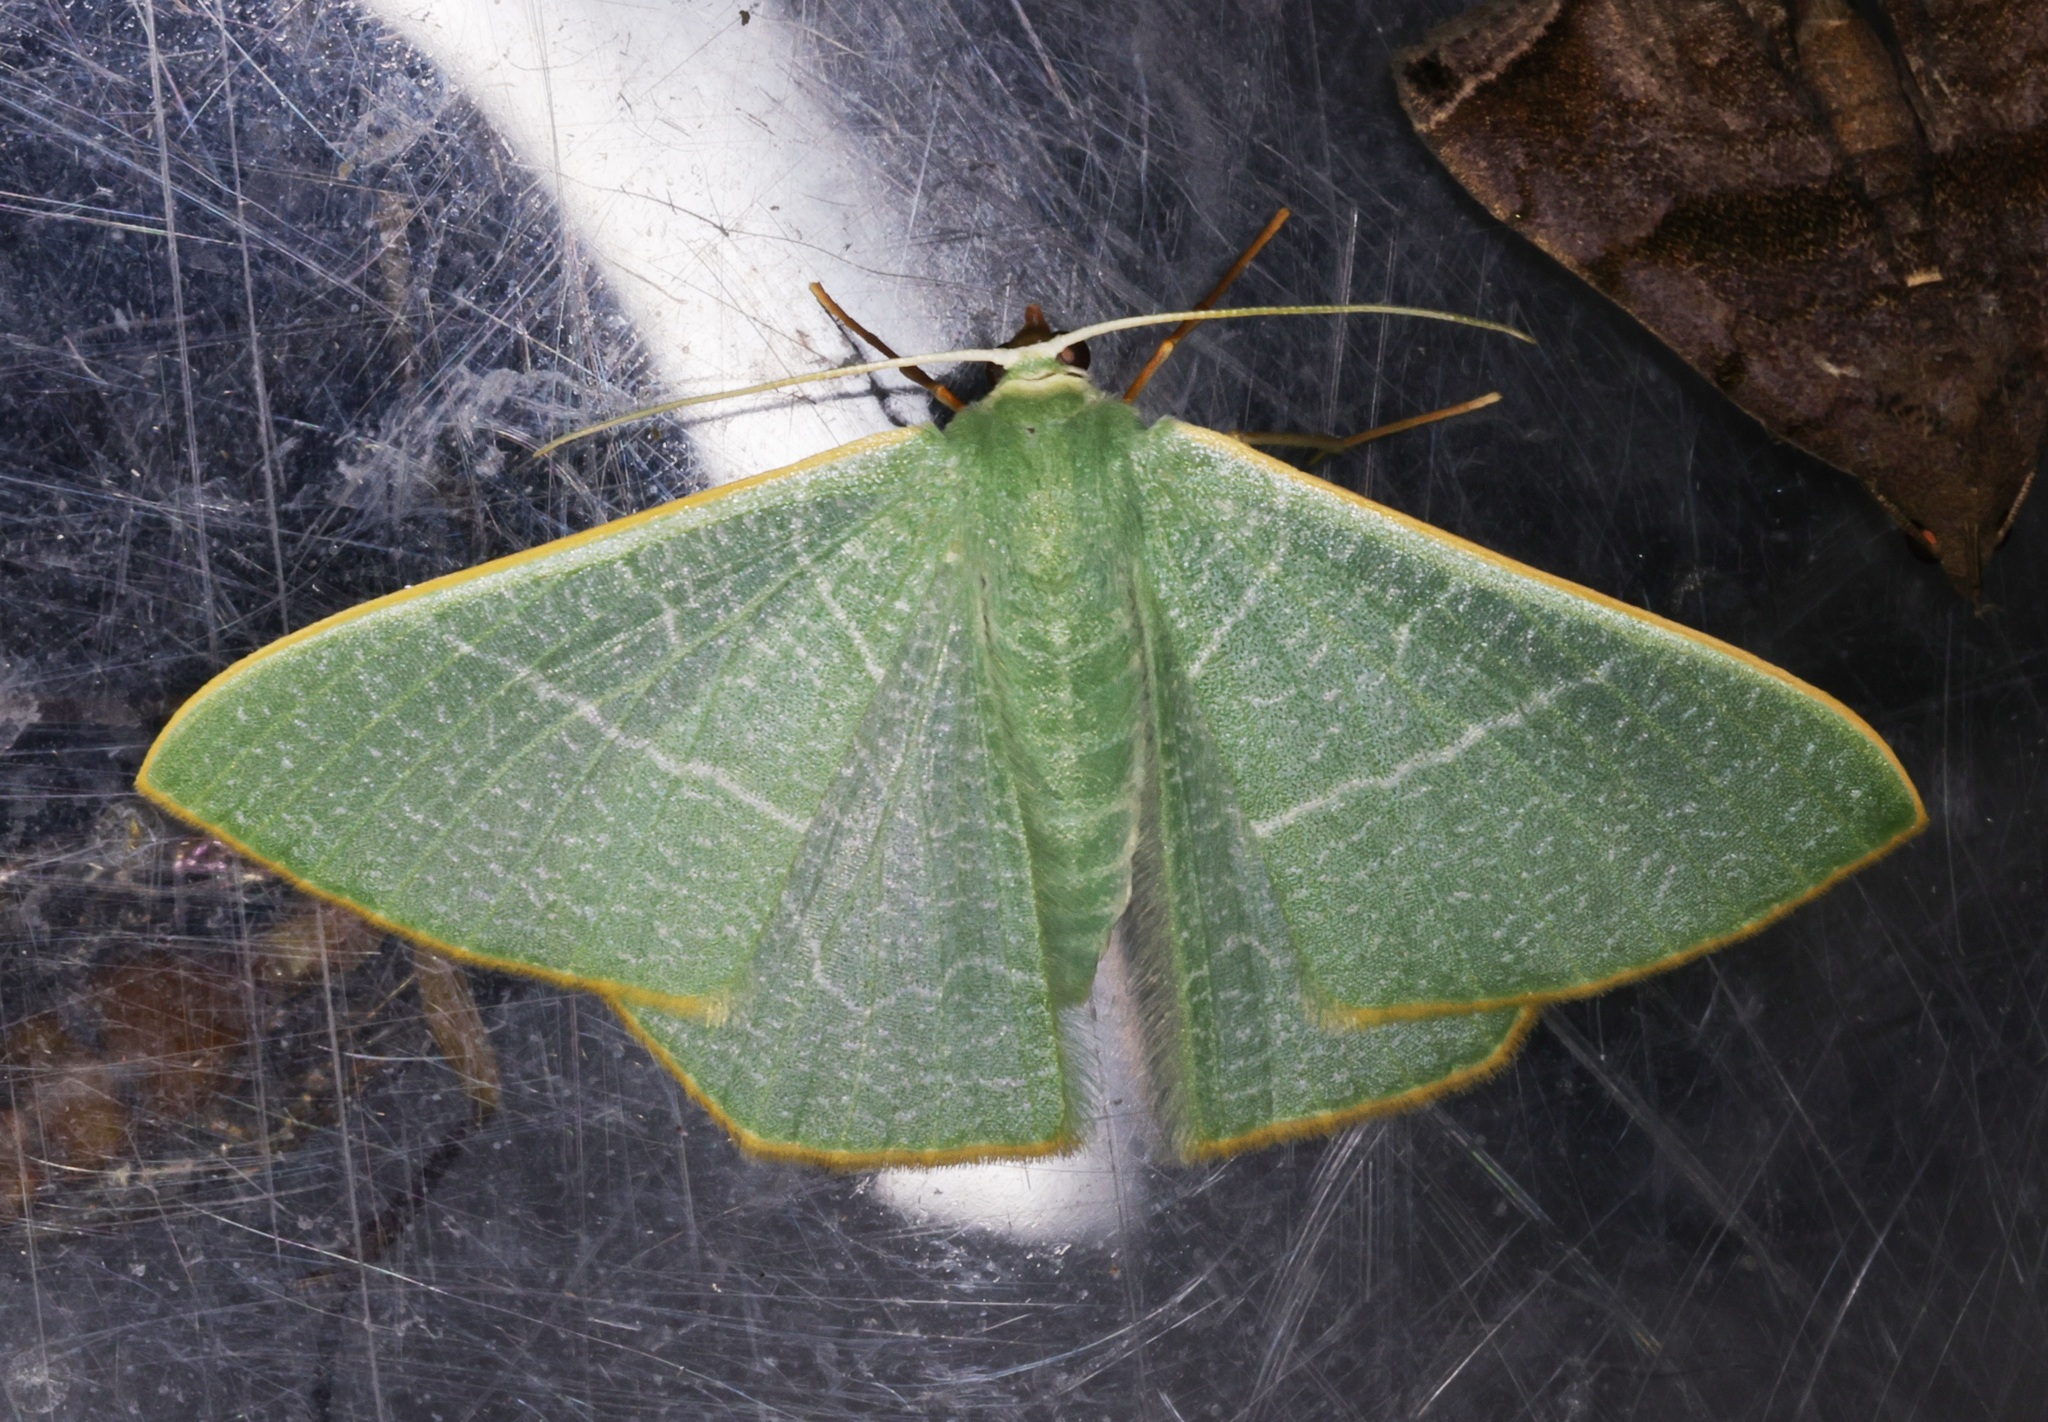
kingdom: Animalia
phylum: Arthropoda
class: Insecta
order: Lepidoptera
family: Geometridae
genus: Pelagodes
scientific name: Pelagodes antiquadraria
